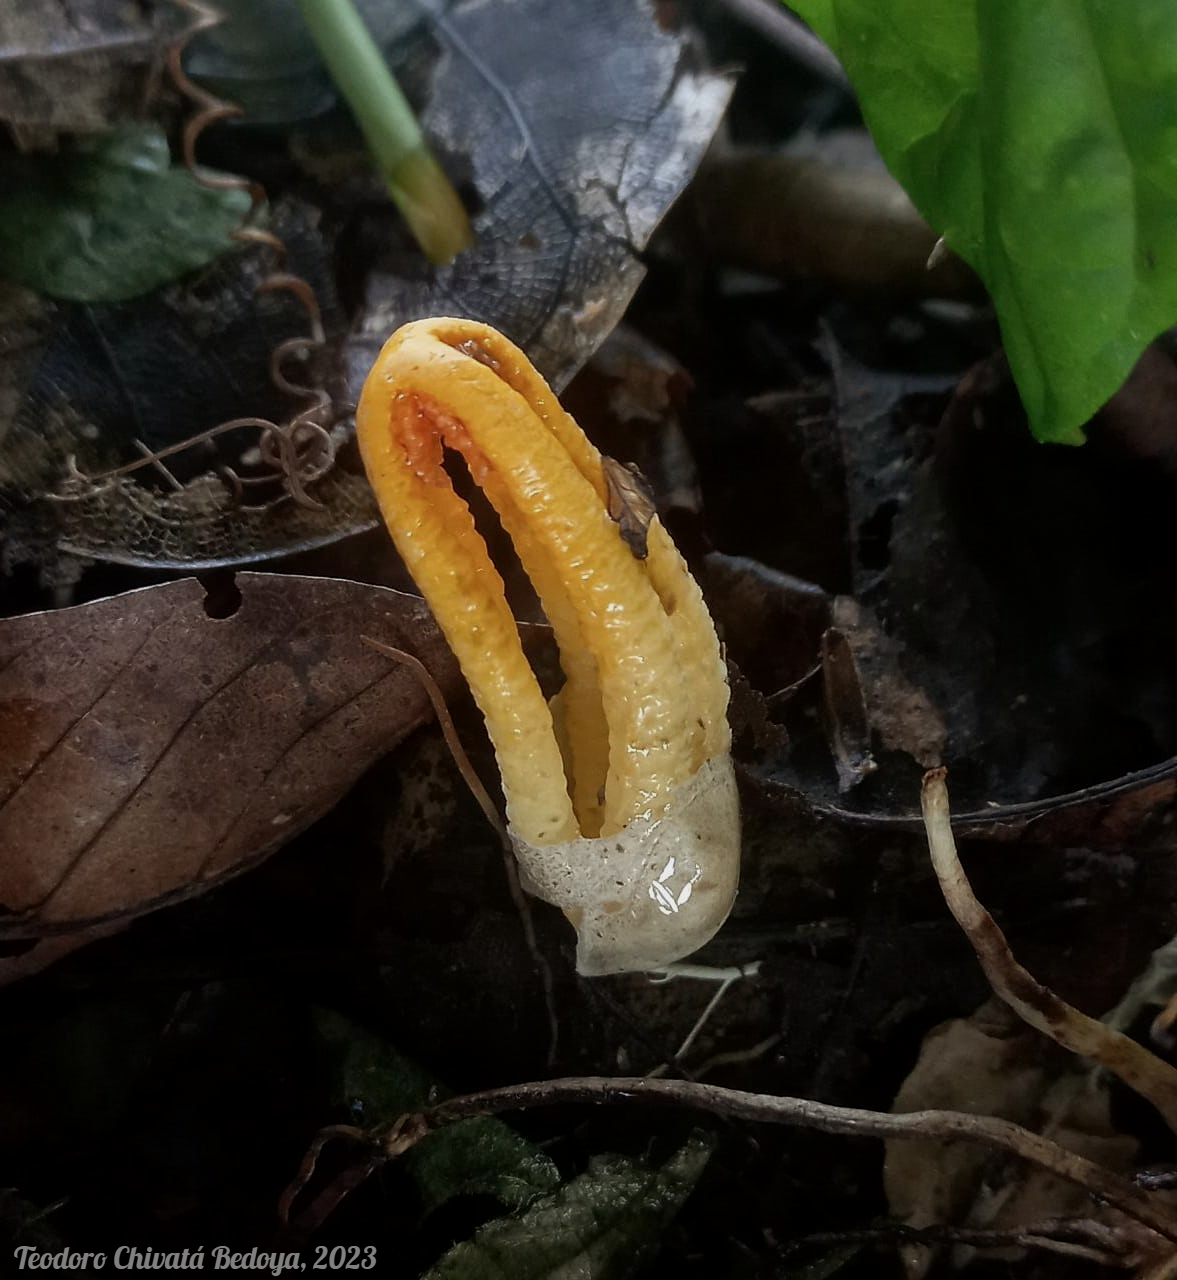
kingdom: Fungi
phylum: Basidiomycota
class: Agaricomycetes
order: Phallales
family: Phallaceae
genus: Laternea
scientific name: Laternea dringii
